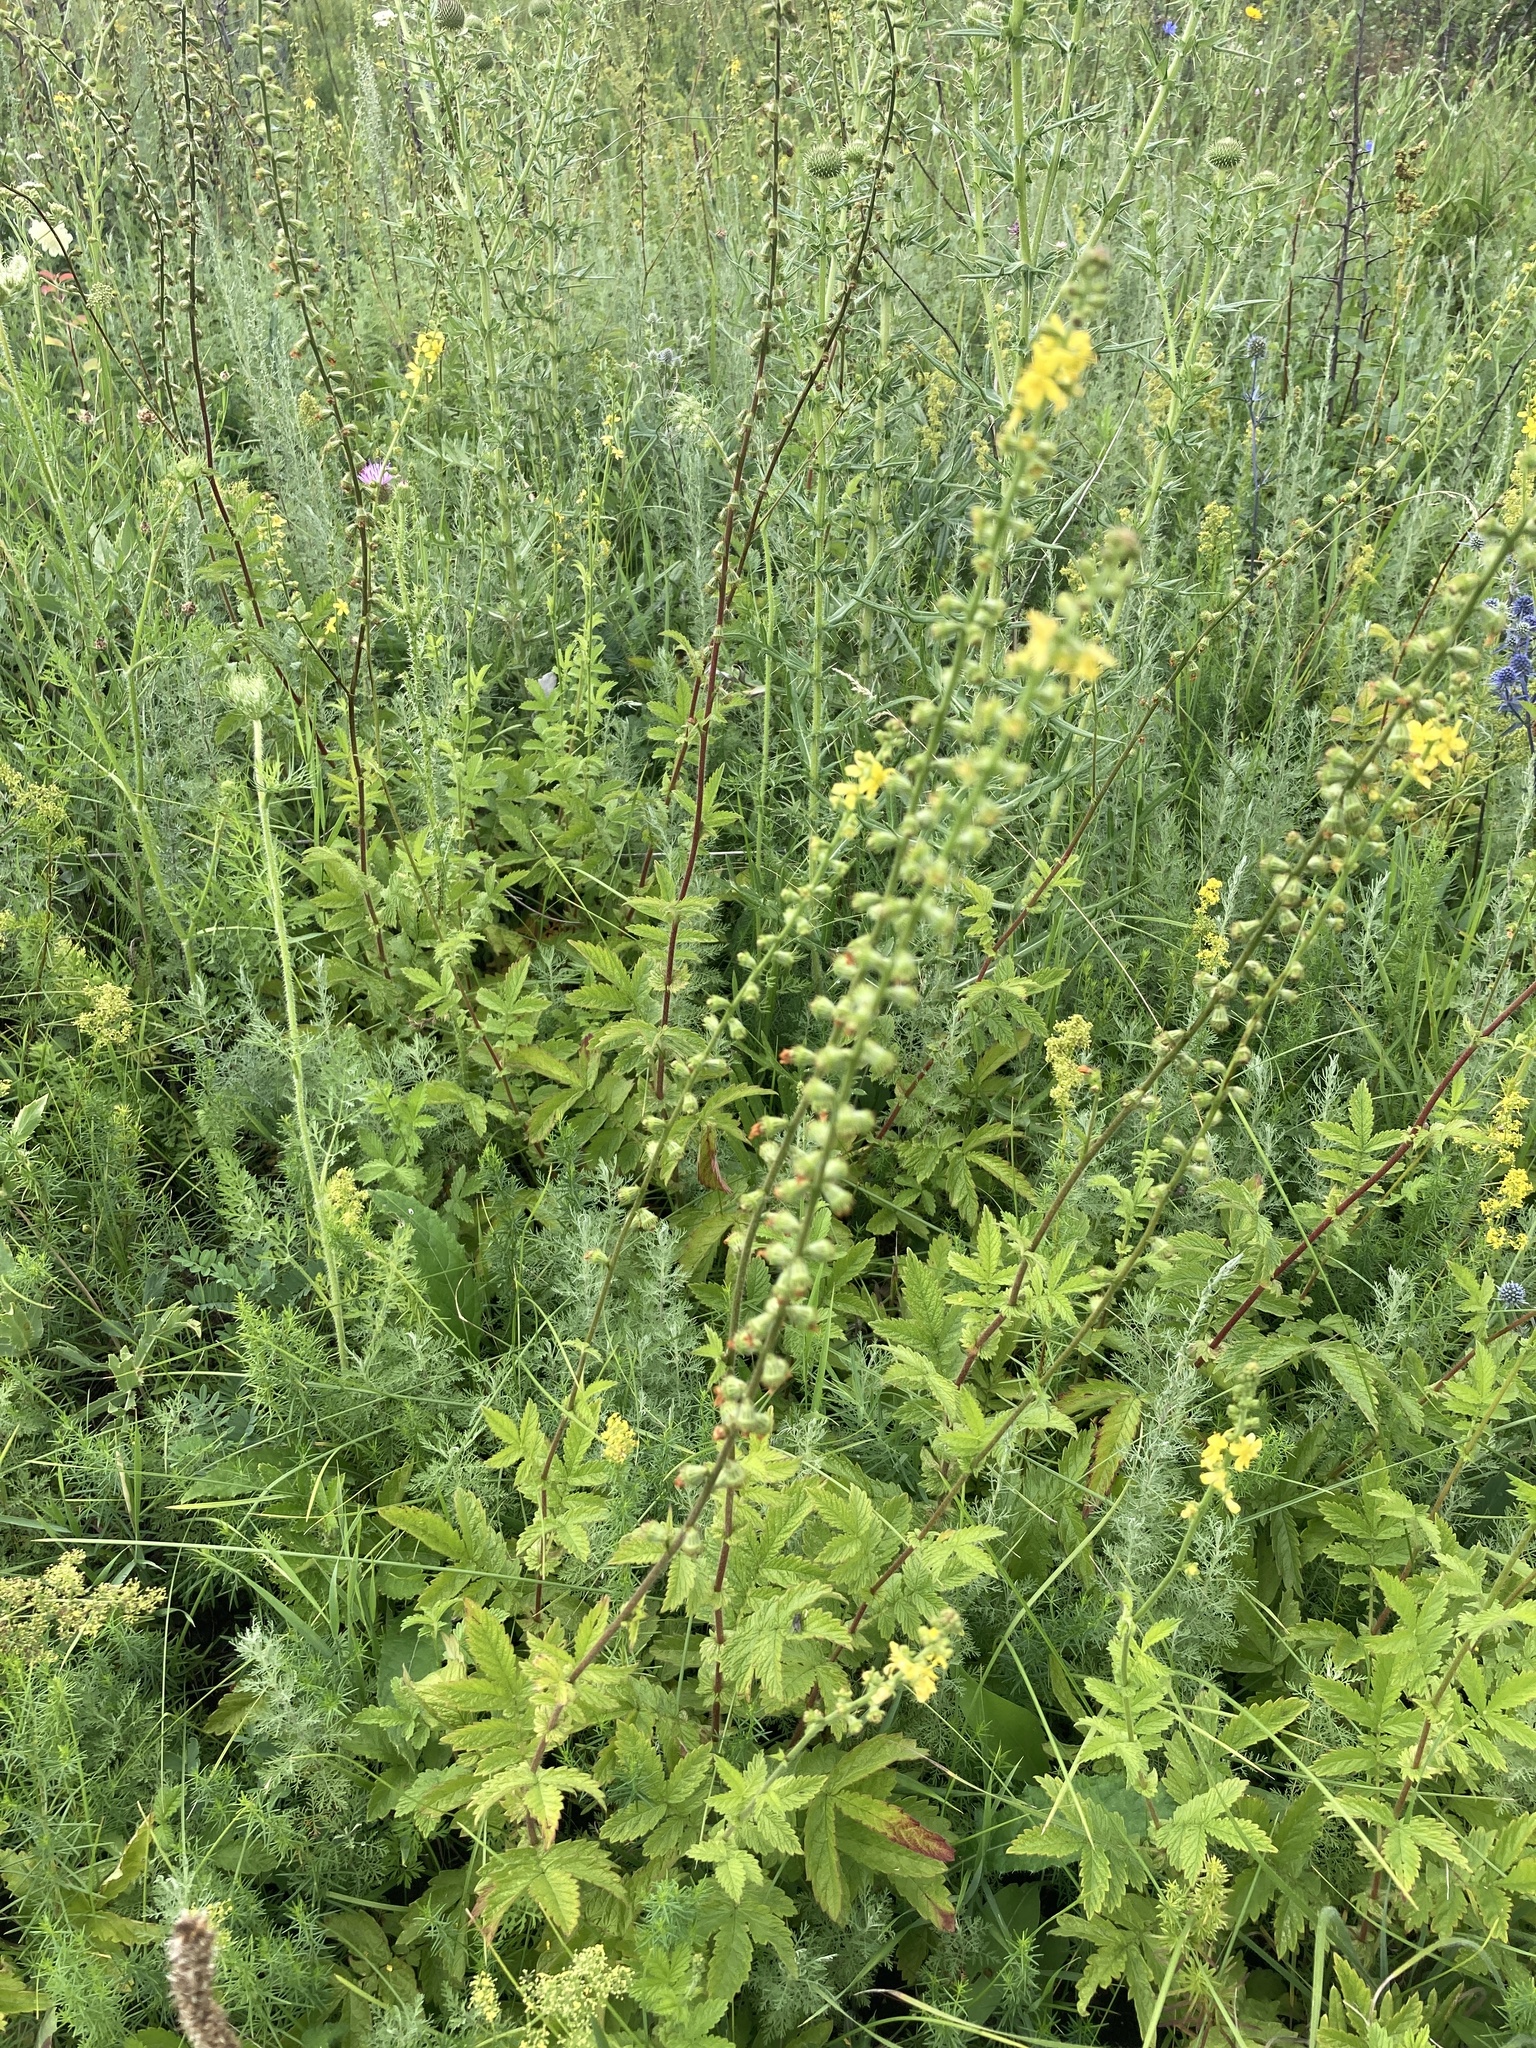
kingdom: Plantae
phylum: Tracheophyta
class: Magnoliopsida
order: Rosales
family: Rosaceae
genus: Agrimonia
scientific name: Agrimonia eupatoria
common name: Agrimony
